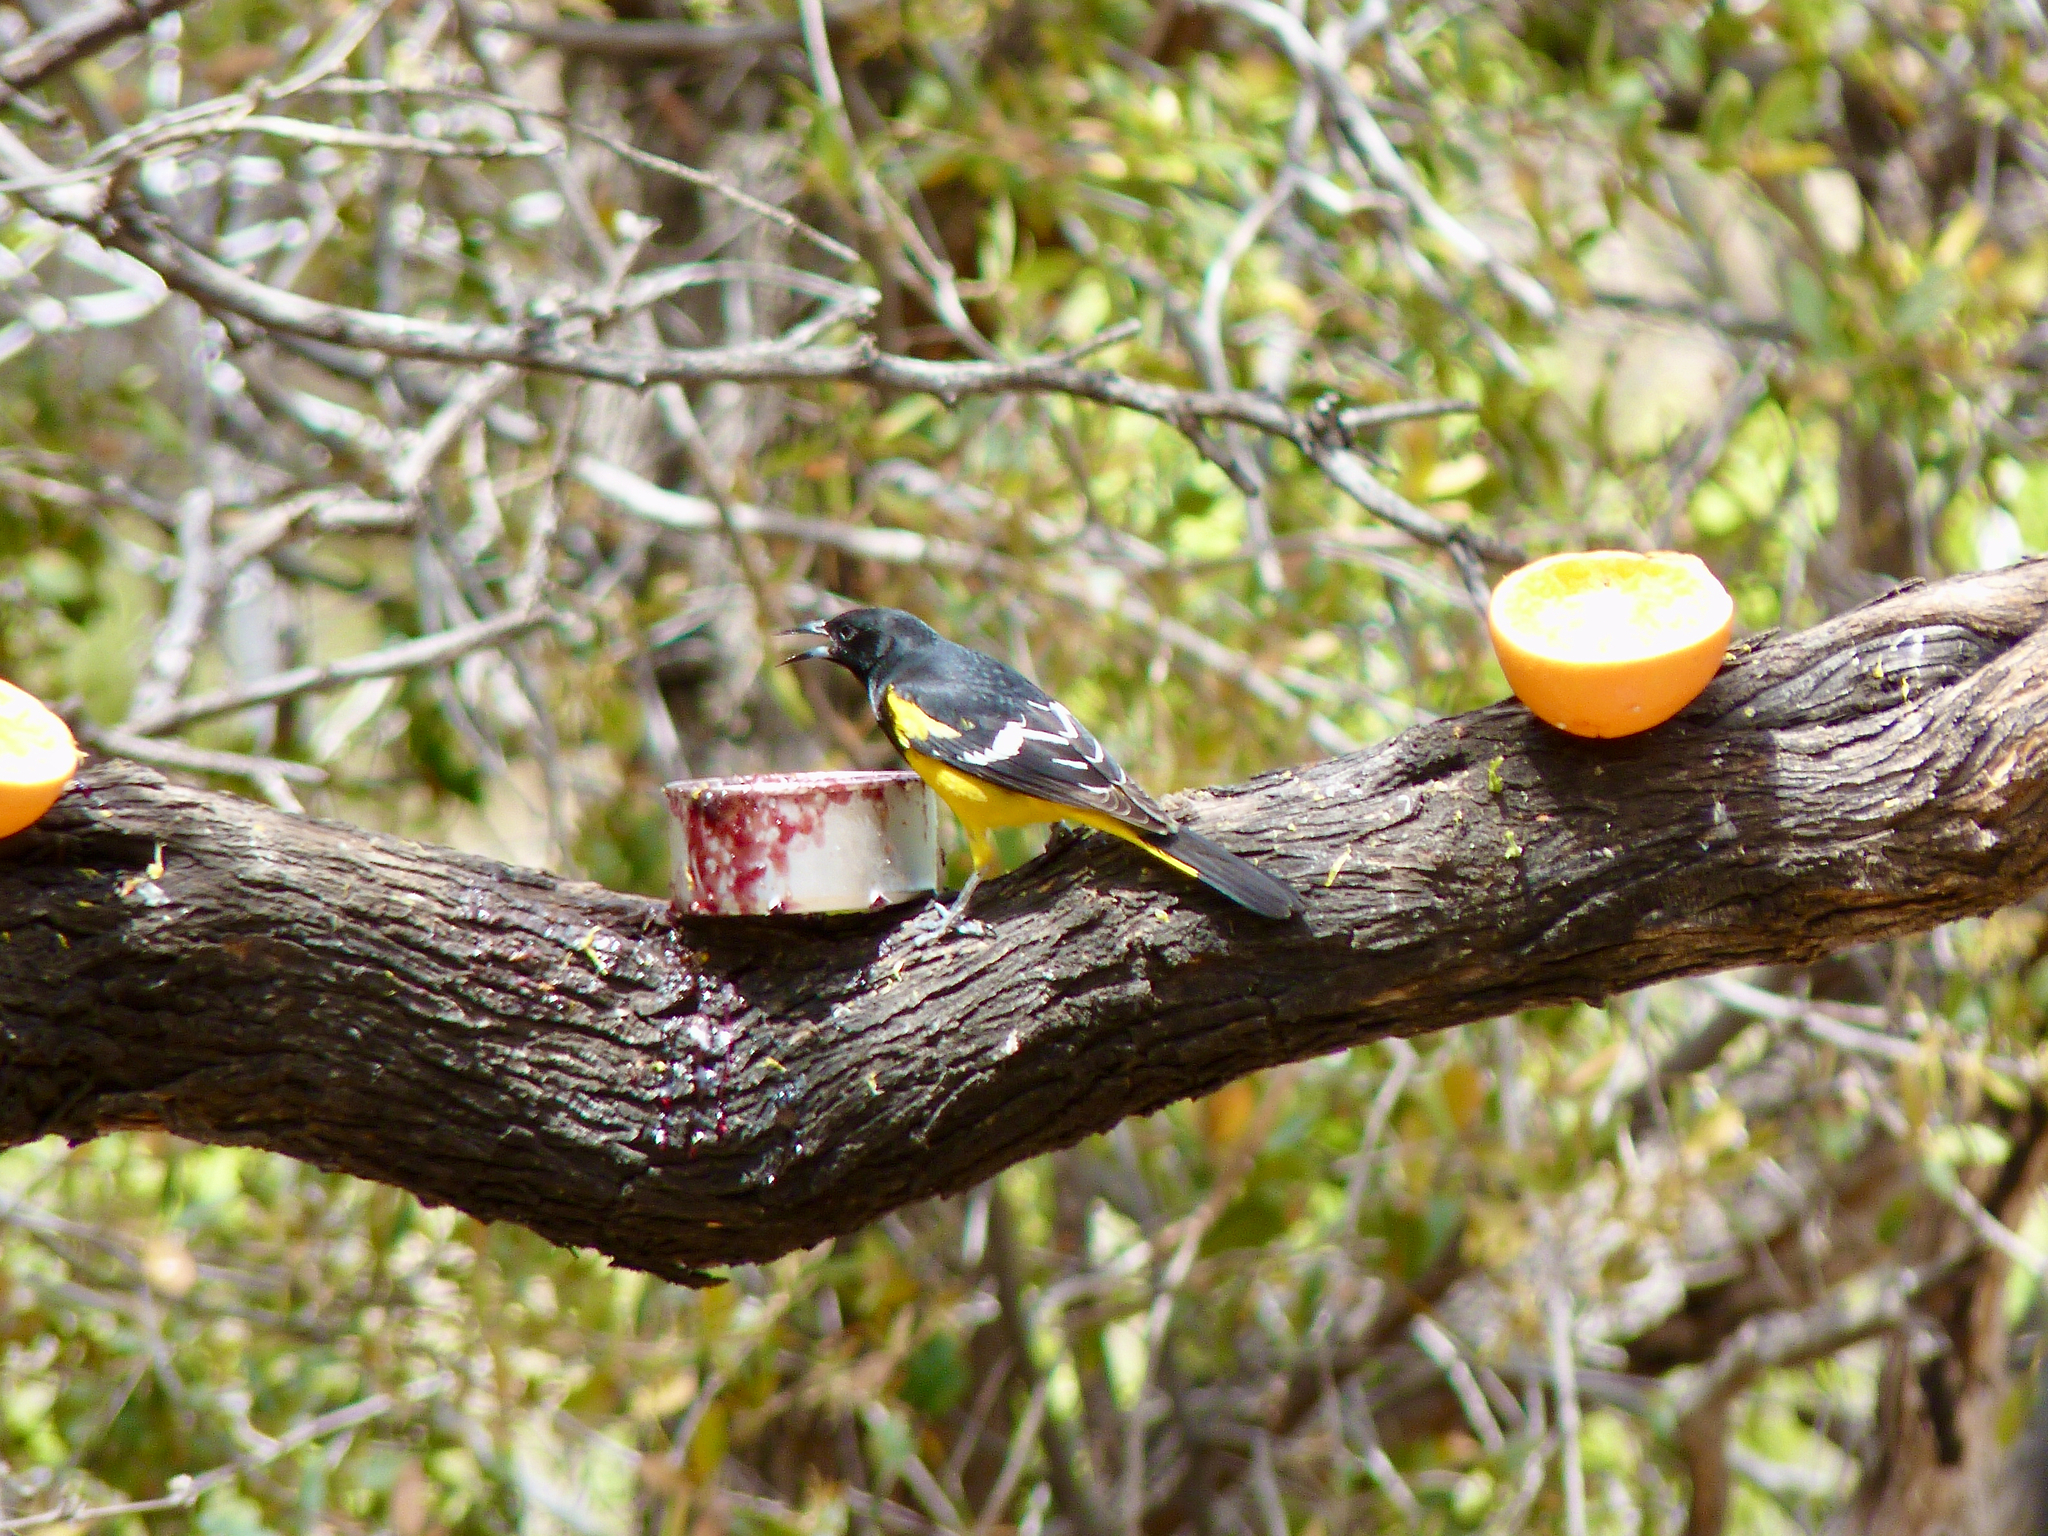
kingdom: Animalia
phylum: Chordata
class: Aves
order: Passeriformes
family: Icteridae
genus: Icterus
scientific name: Icterus parisorum
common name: Scott's oriole
